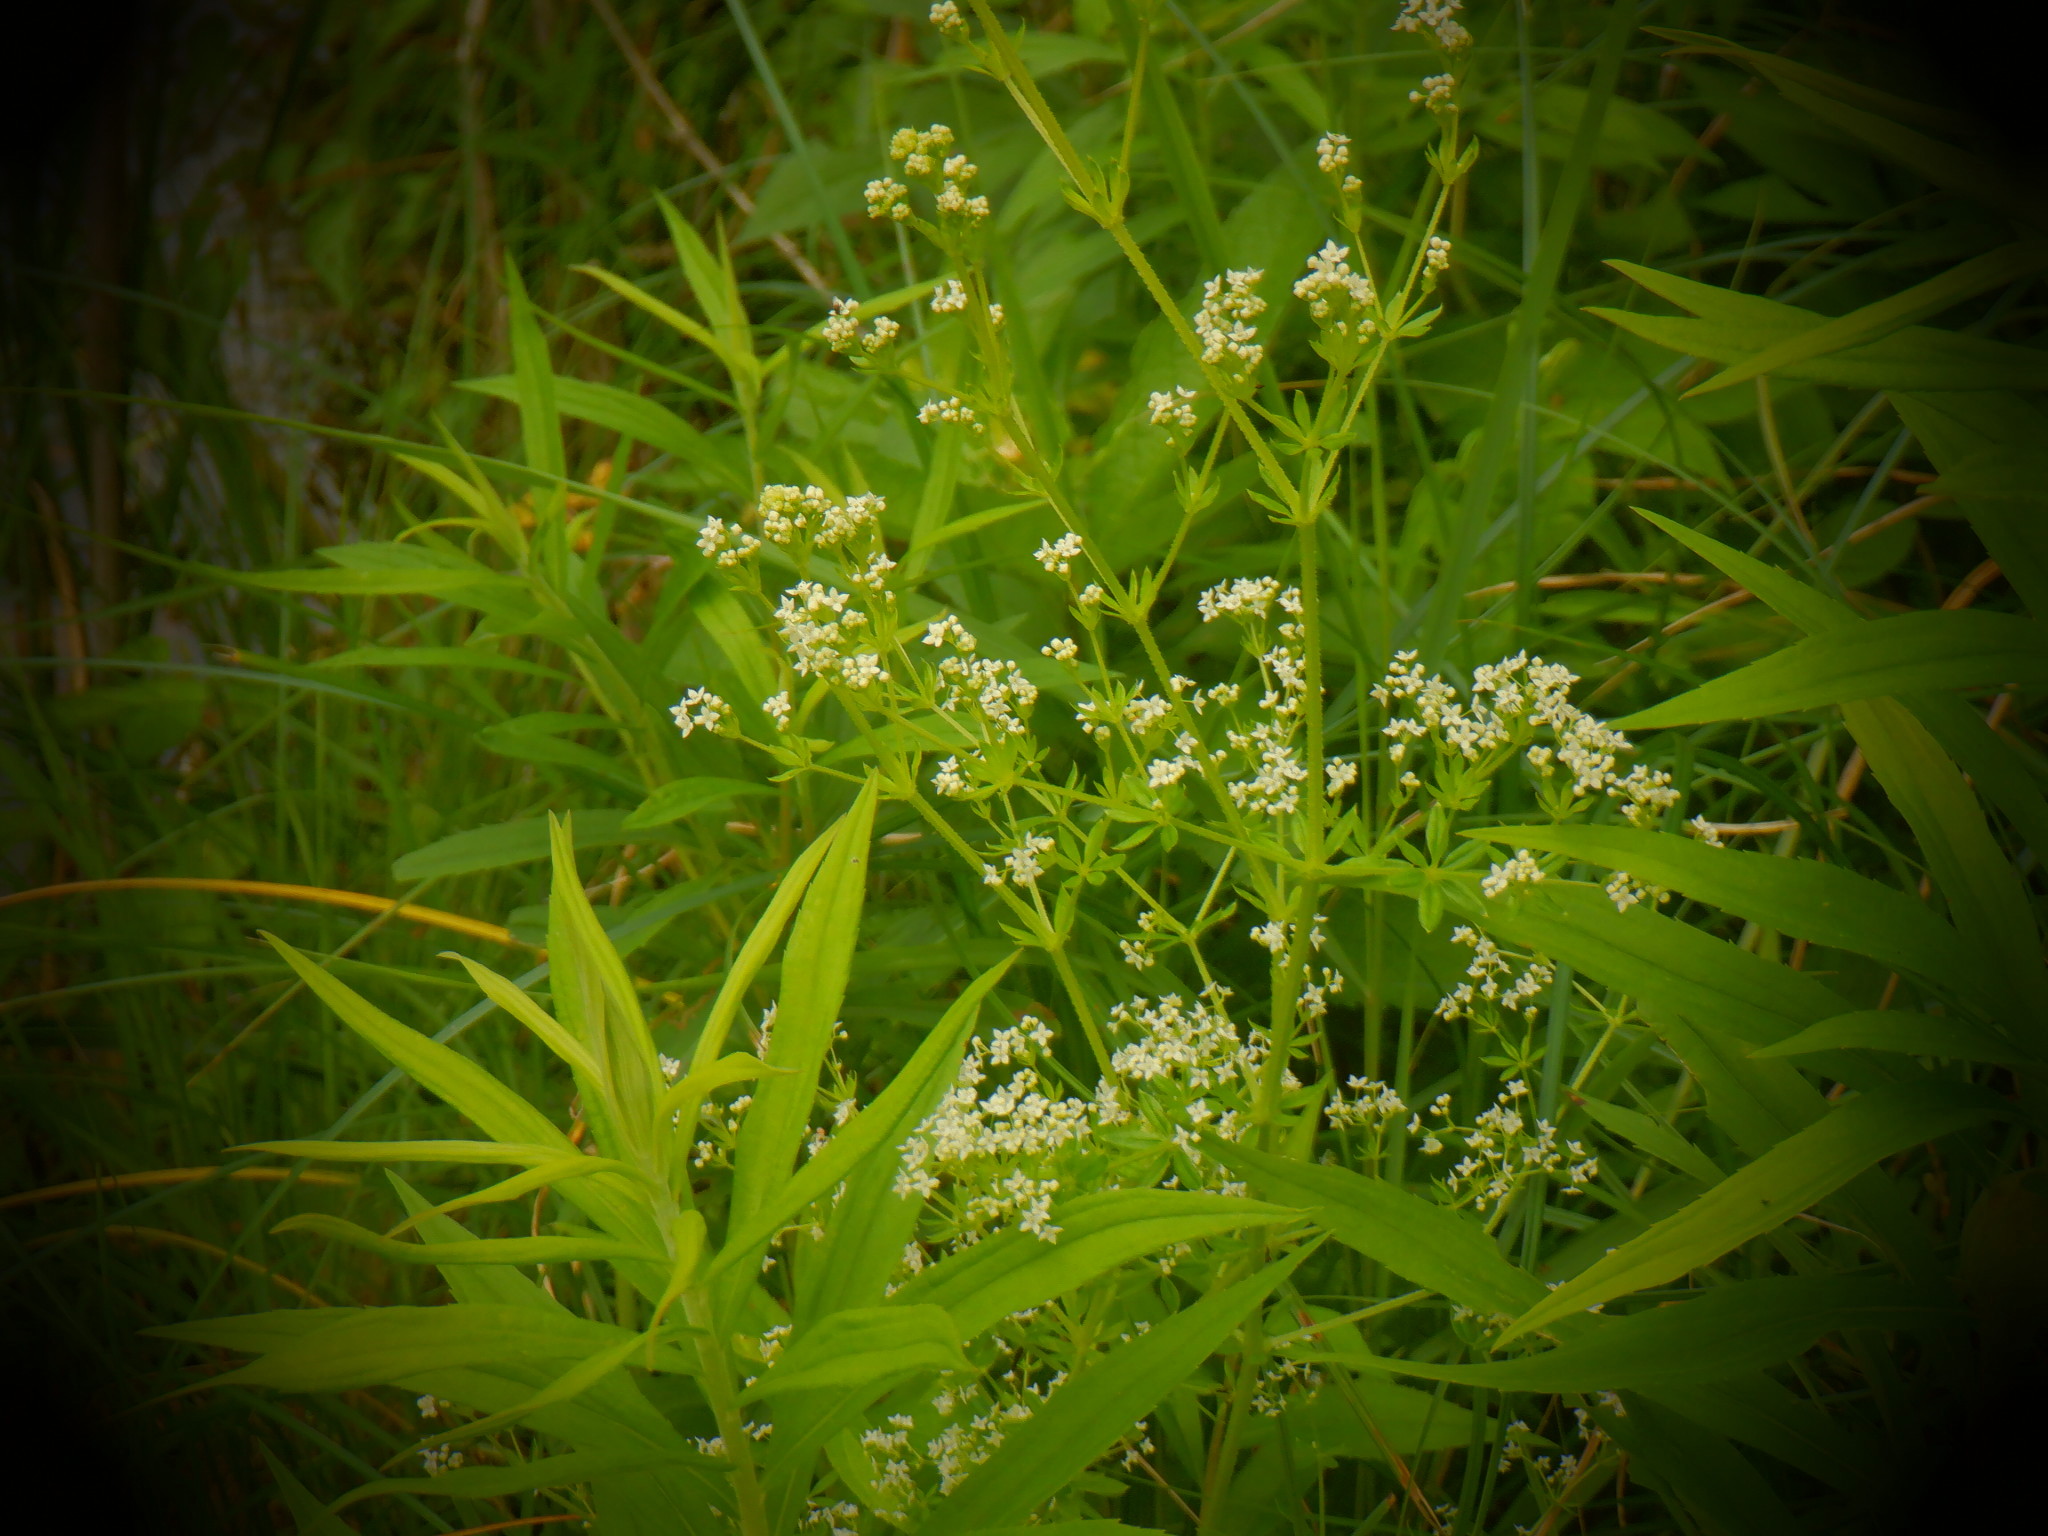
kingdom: Plantae
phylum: Tracheophyta
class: Magnoliopsida
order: Gentianales
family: Rubiaceae
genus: Galium
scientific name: Galium asprellum
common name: Rough bedstraw
